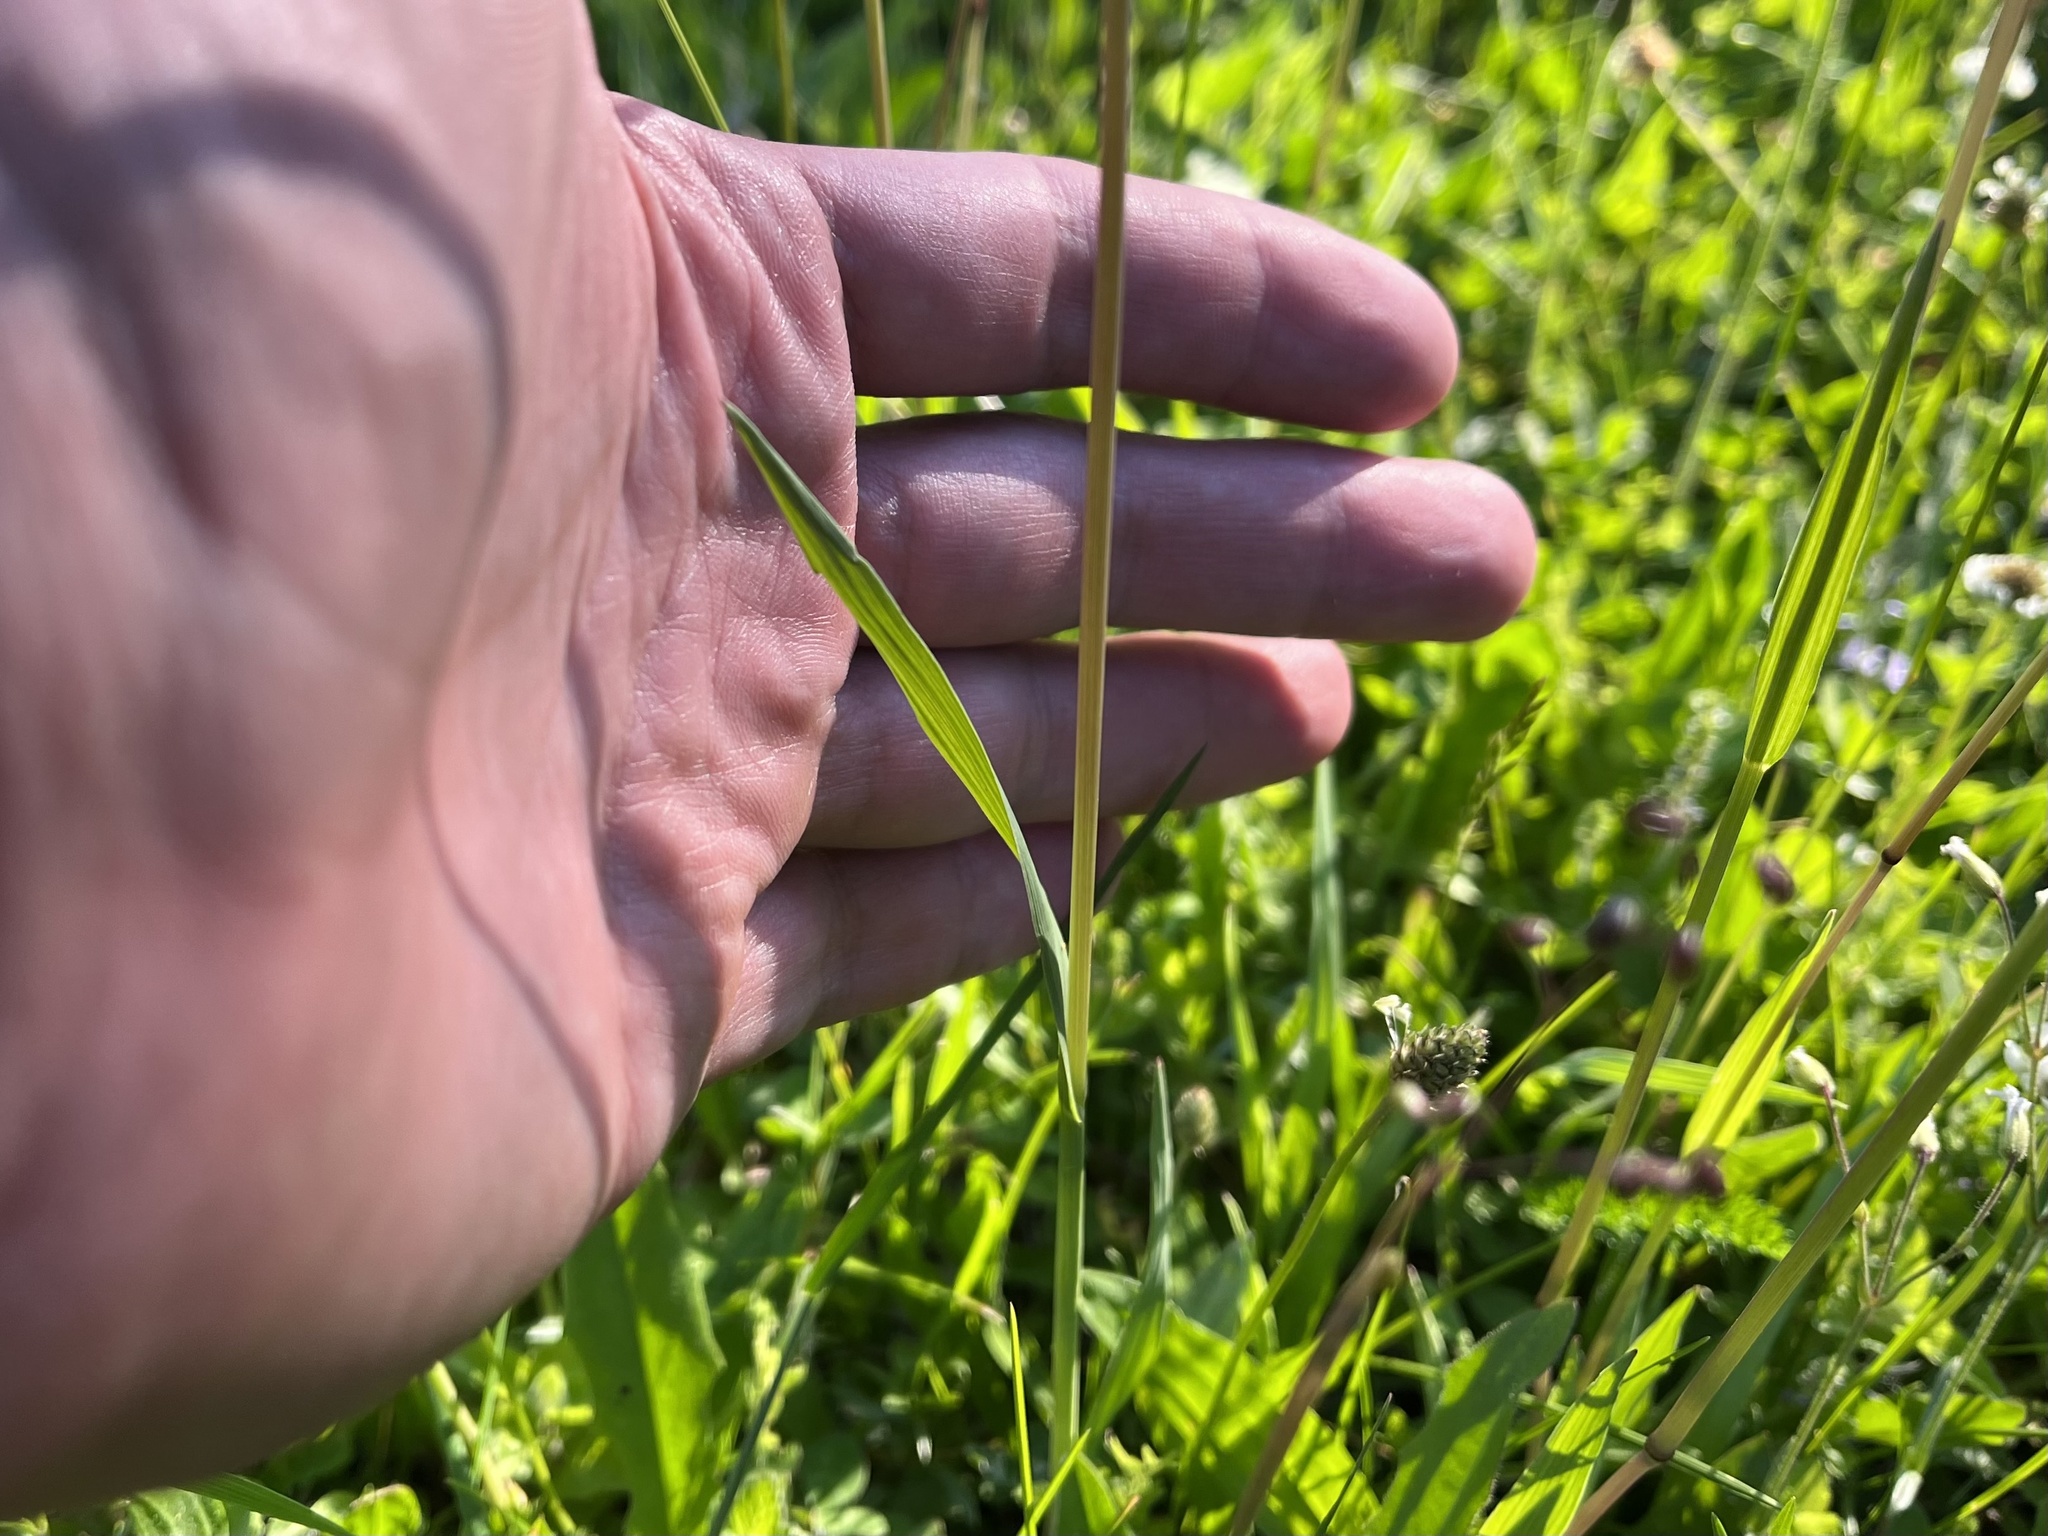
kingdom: Plantae
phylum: Tracheophyta
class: Liliopsida
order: Poales
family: Poaceae
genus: Briza
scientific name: Briza media
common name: Quaking grass
